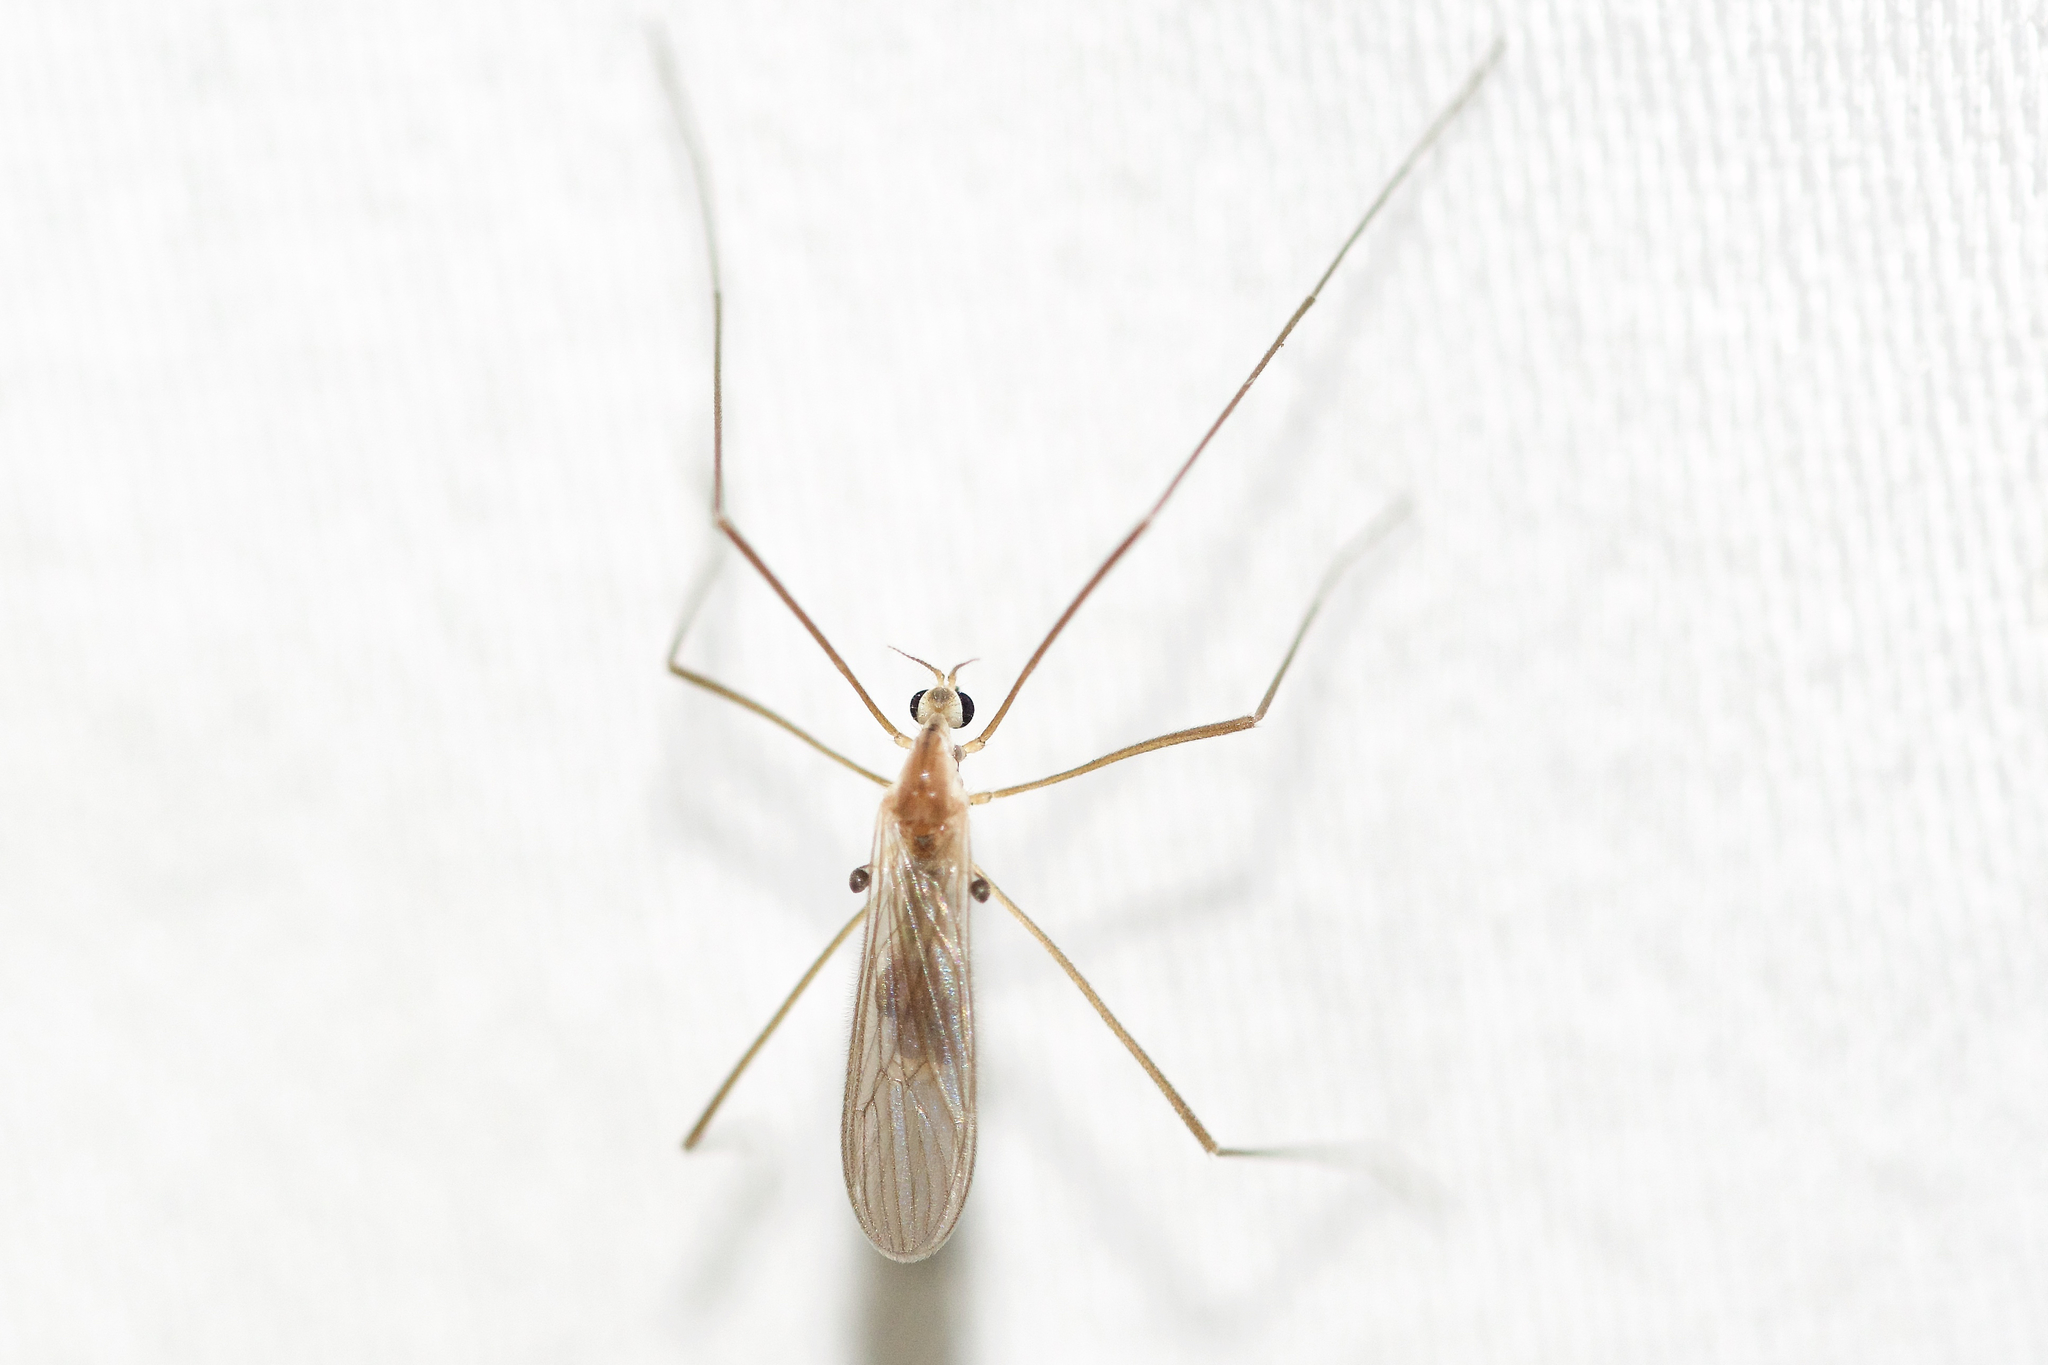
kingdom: Animalia
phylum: Arthropoda
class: Insecta
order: Diptera
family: Limoniidae
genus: Erioptera
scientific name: Erioptera septemtrionis
